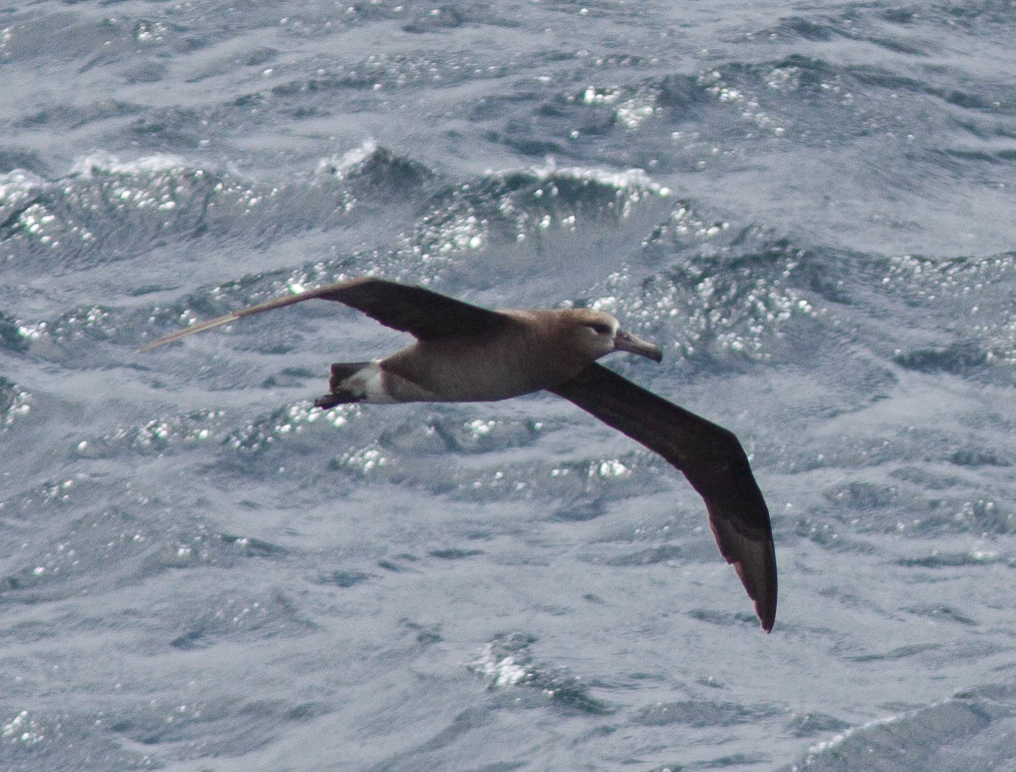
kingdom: Animalia
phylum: Chordata
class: Aves
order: Procellariiformes
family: Diomedeidae
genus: Phoebastria
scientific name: Phoebastria nigripes
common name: Black-footed albatross
